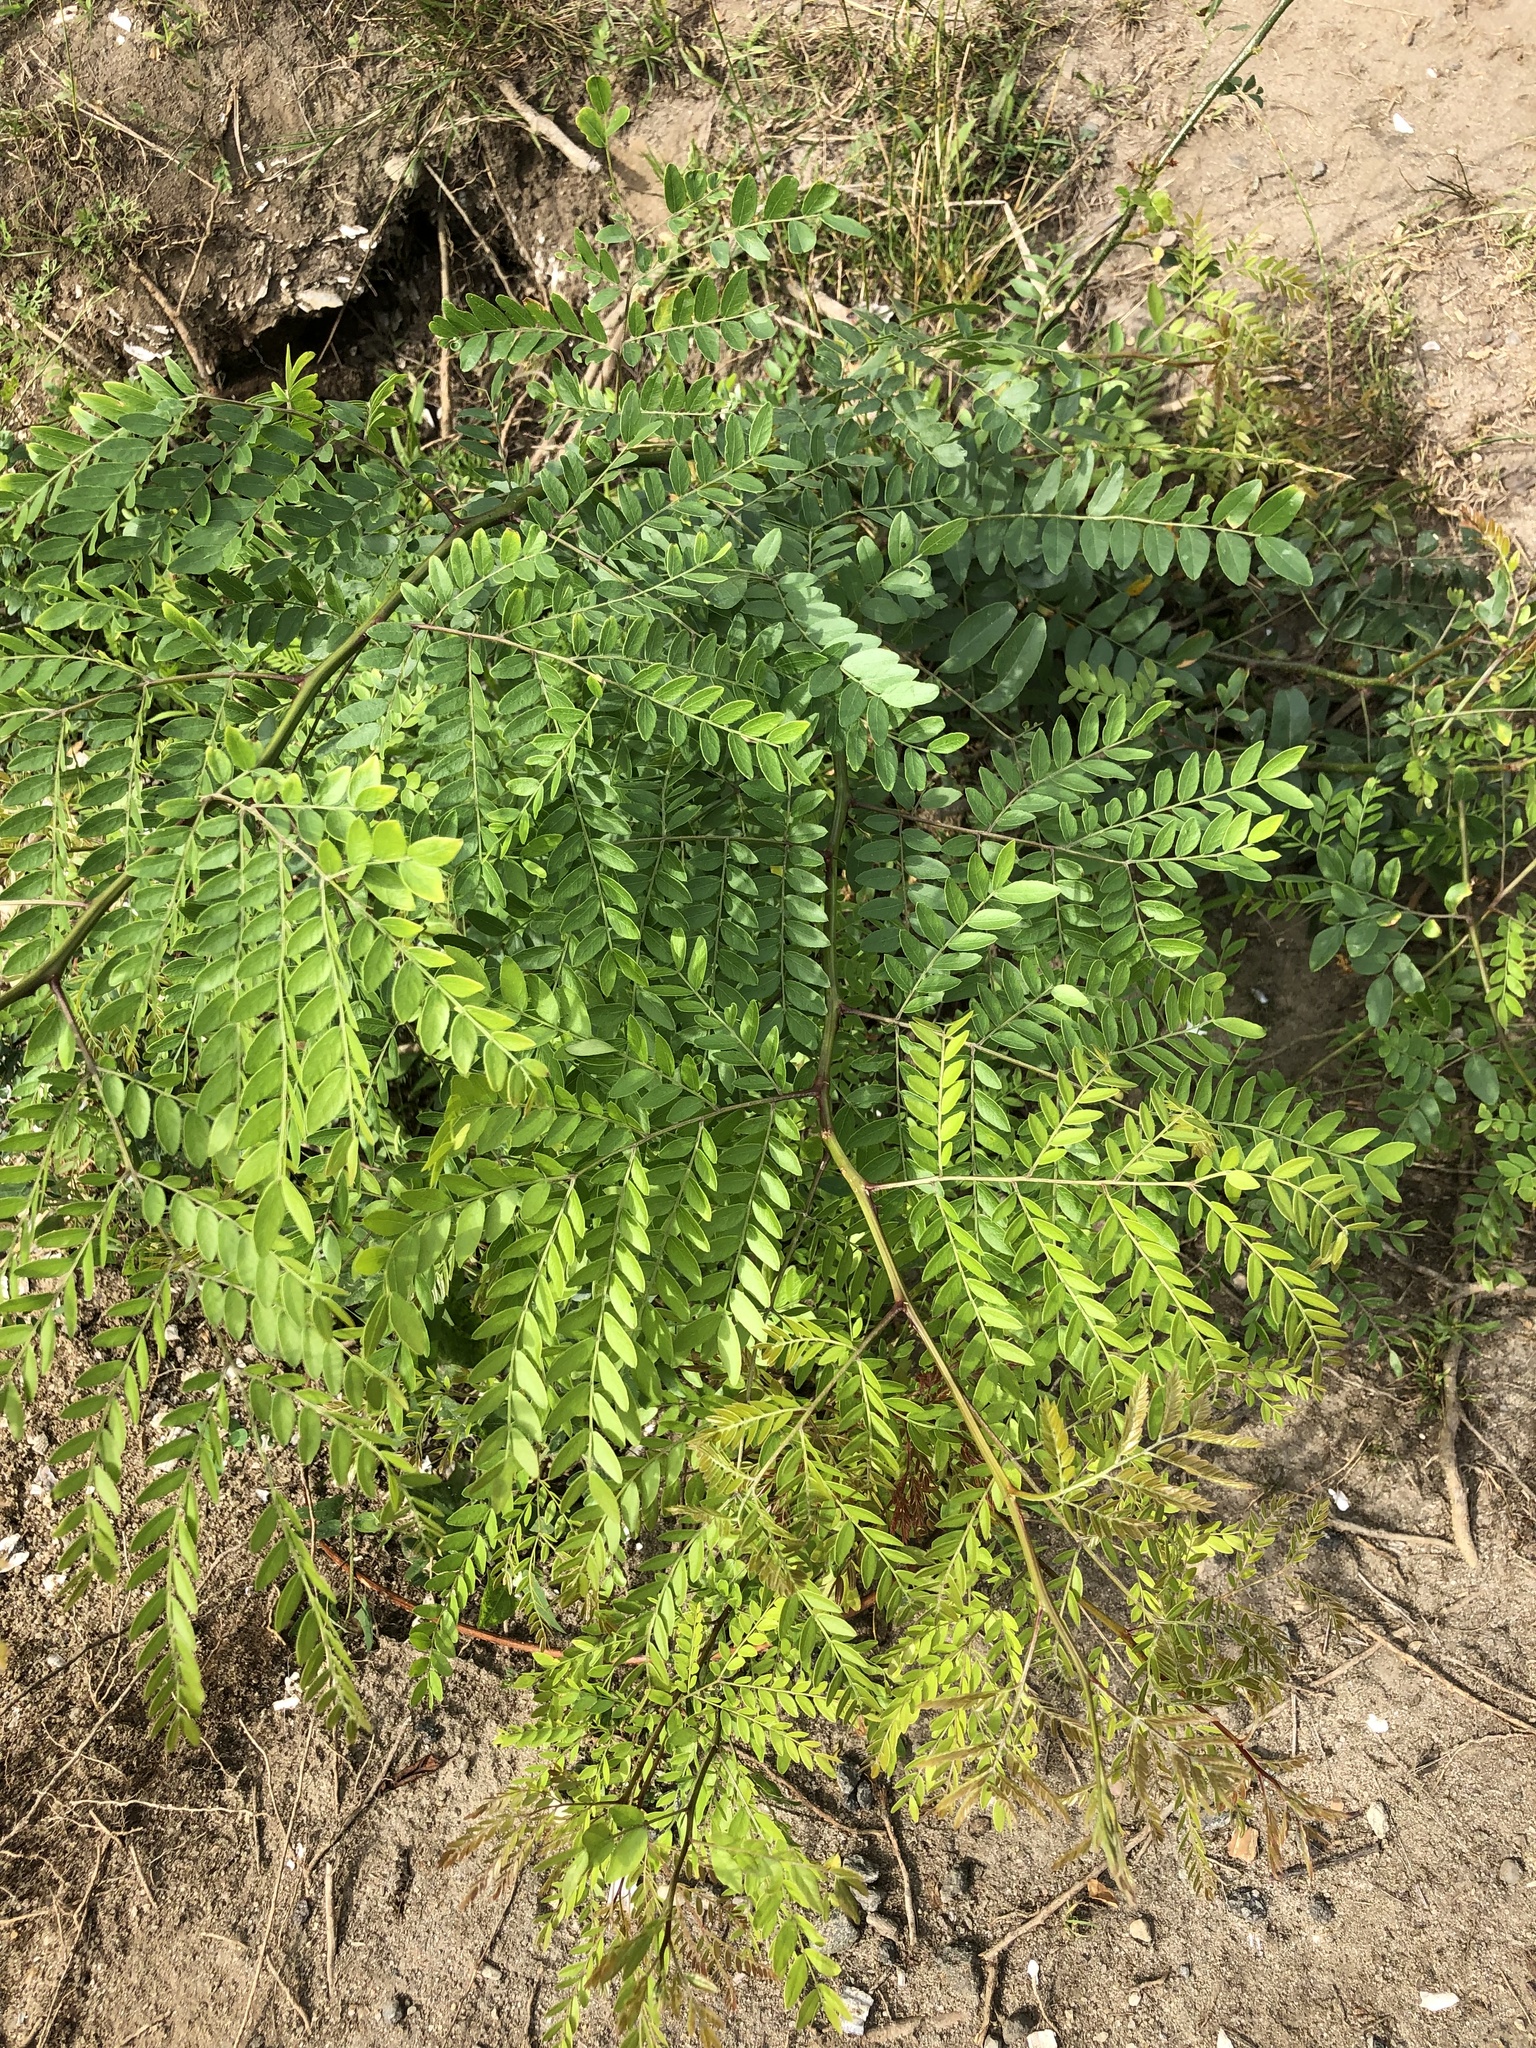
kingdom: Plantae
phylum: Tracheophyta
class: Magnoliopsida
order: Fabales
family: Fabaceae
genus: Gleditsia
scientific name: Gleditsia triacanthos
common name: Common honeylocust
